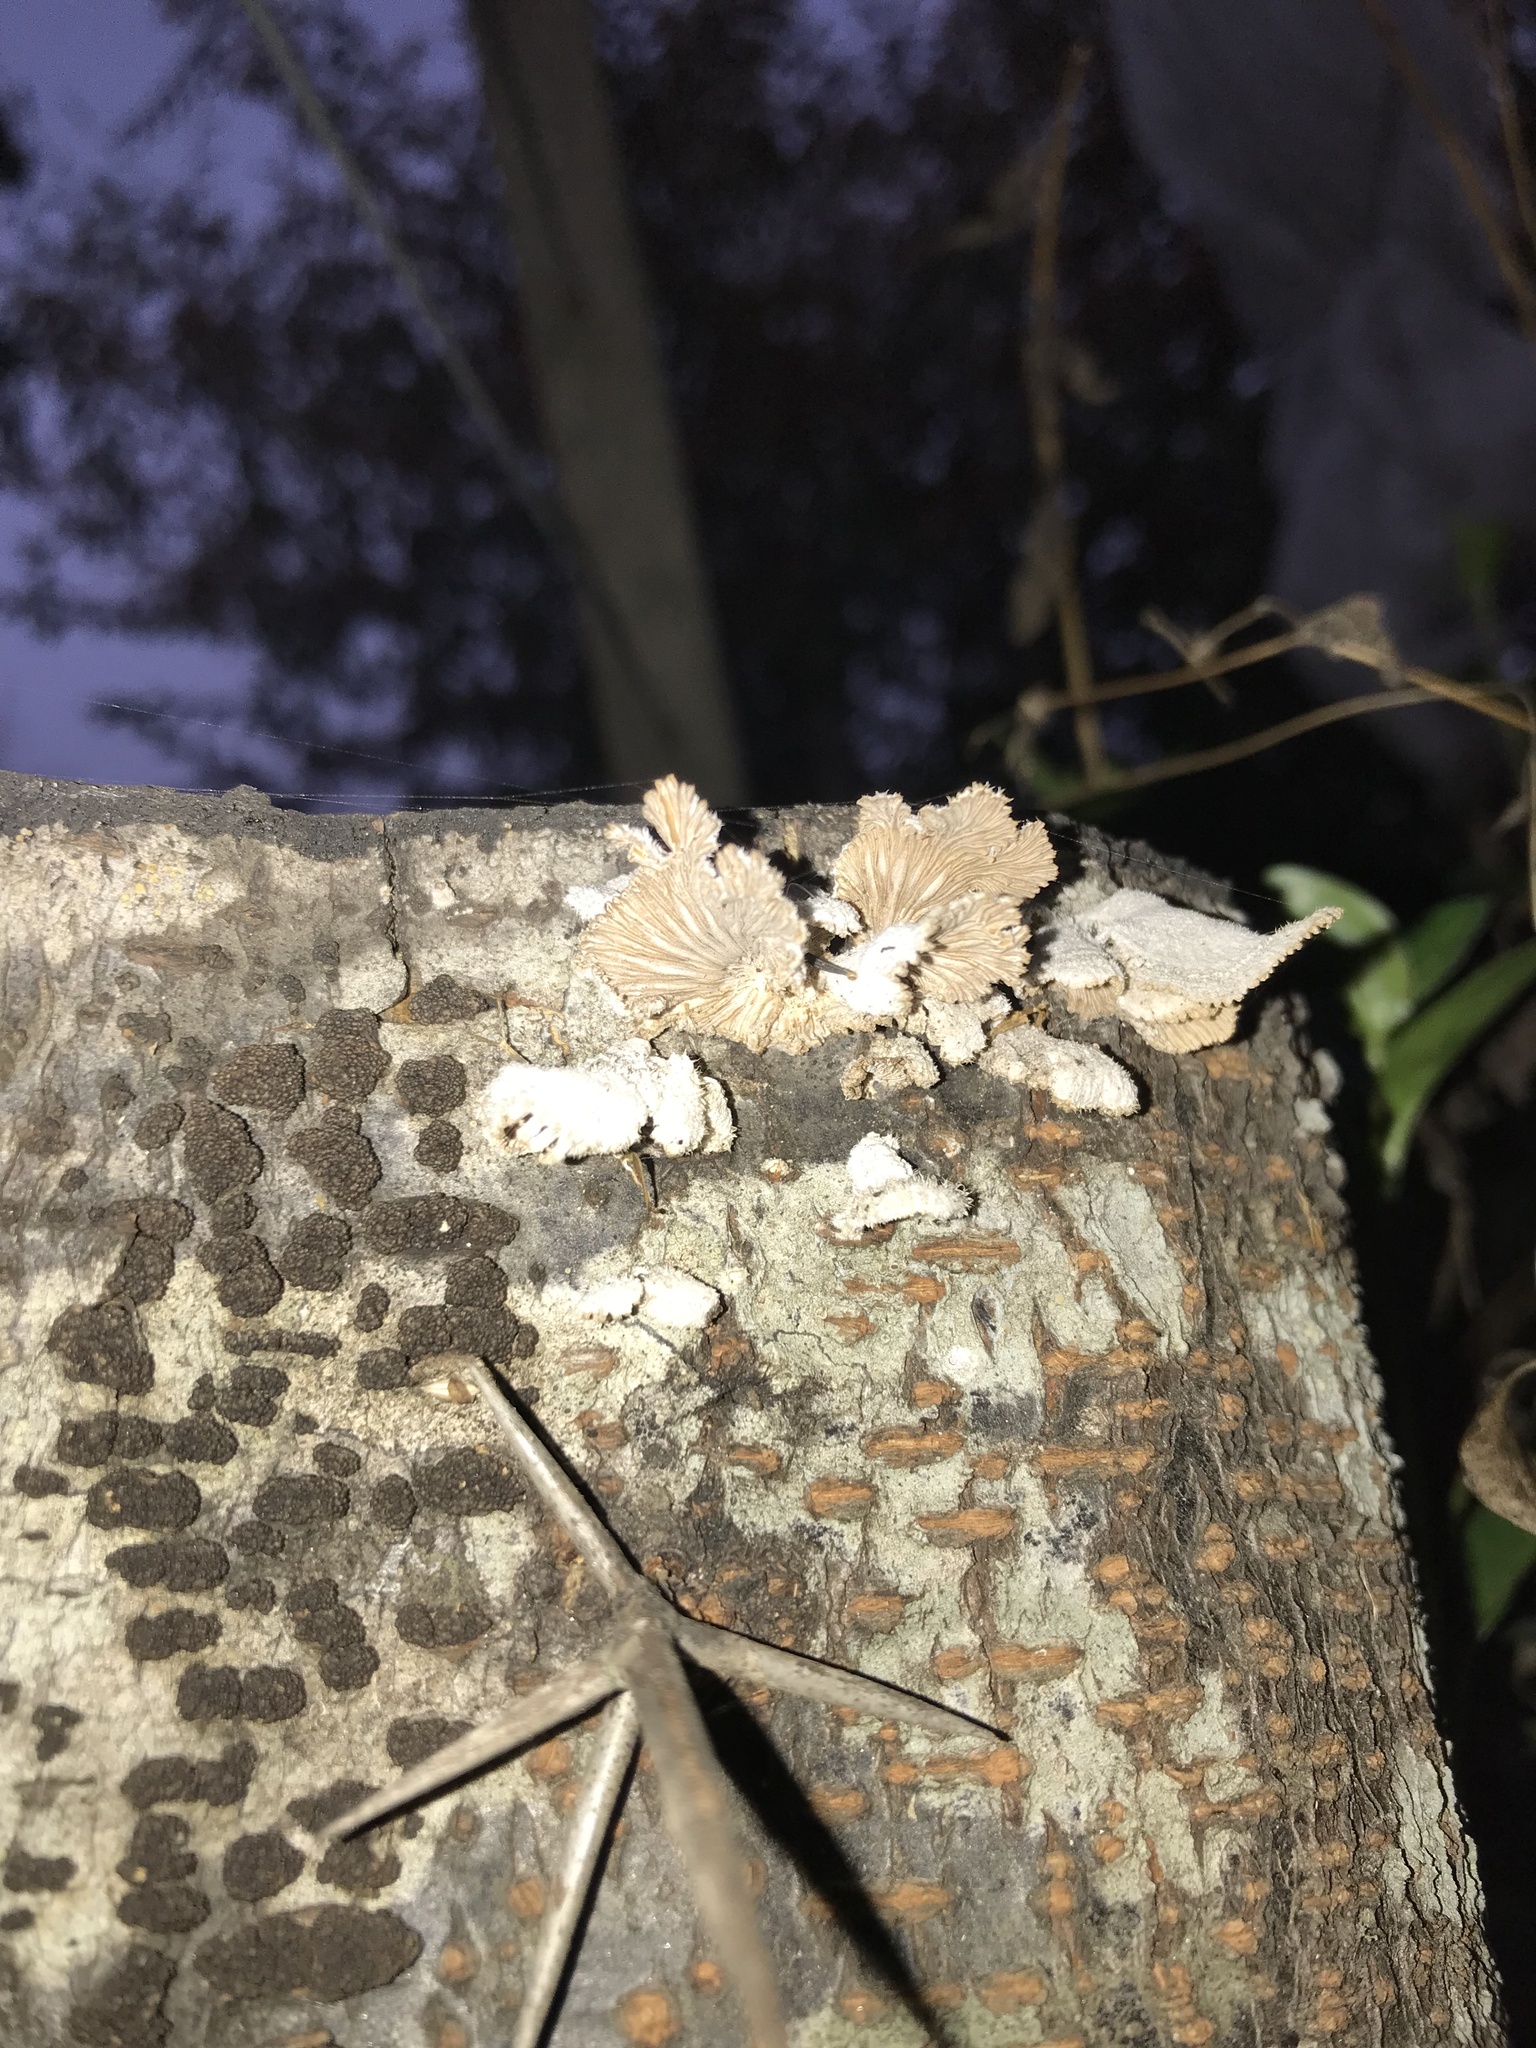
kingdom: Fungi
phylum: Basidiomycota
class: Agaricomycetes
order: Agaricales
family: Schizophyllaceae
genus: Schizophyllum
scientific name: Schizophyllum commune
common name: Common porecrust
